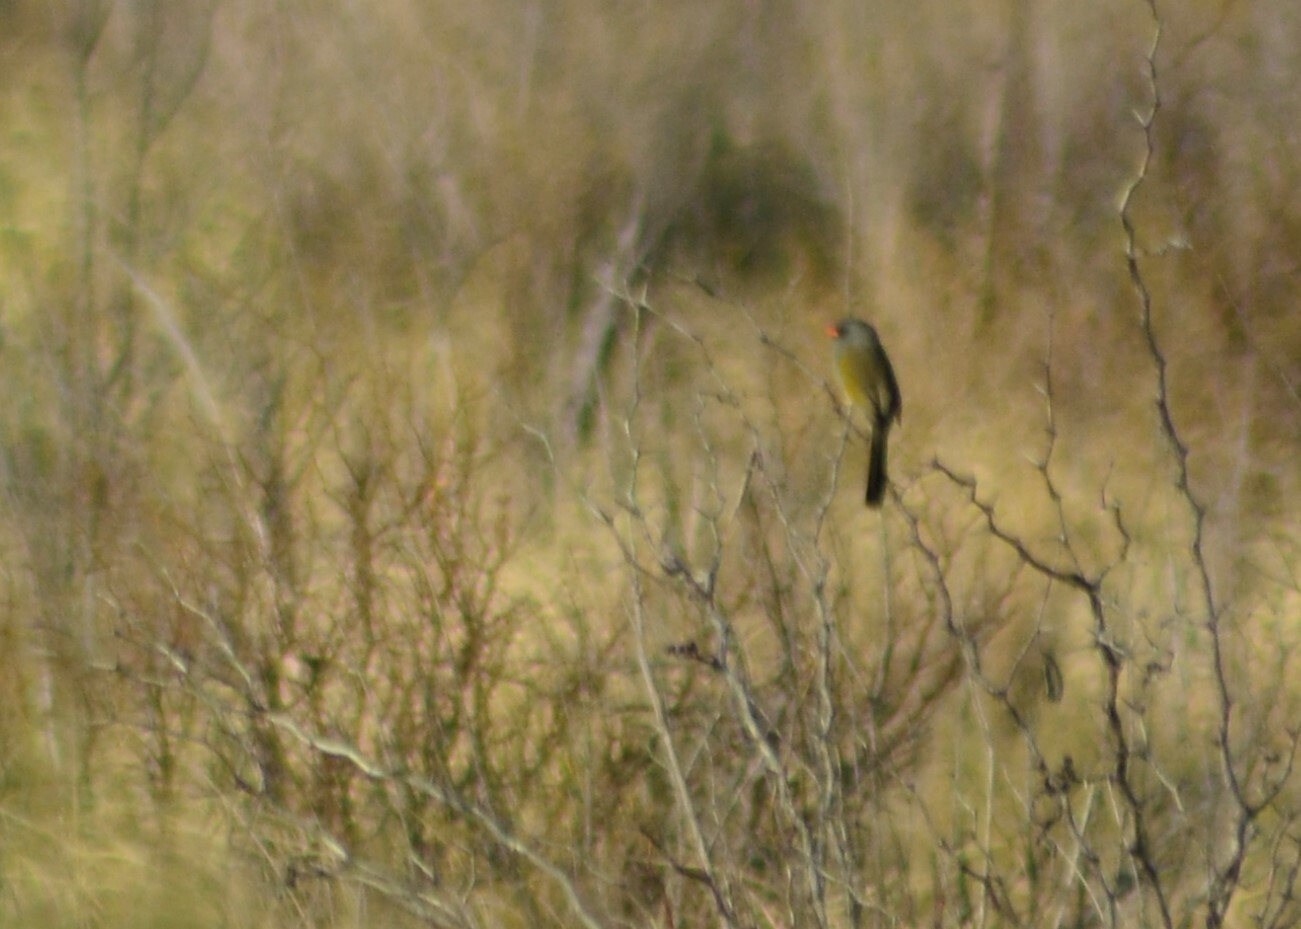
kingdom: Animalia
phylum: Chordata
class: Aves
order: Passeriformes
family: Thraupidae
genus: Embernagra
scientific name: Embernagra platensis
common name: Pampa finch
